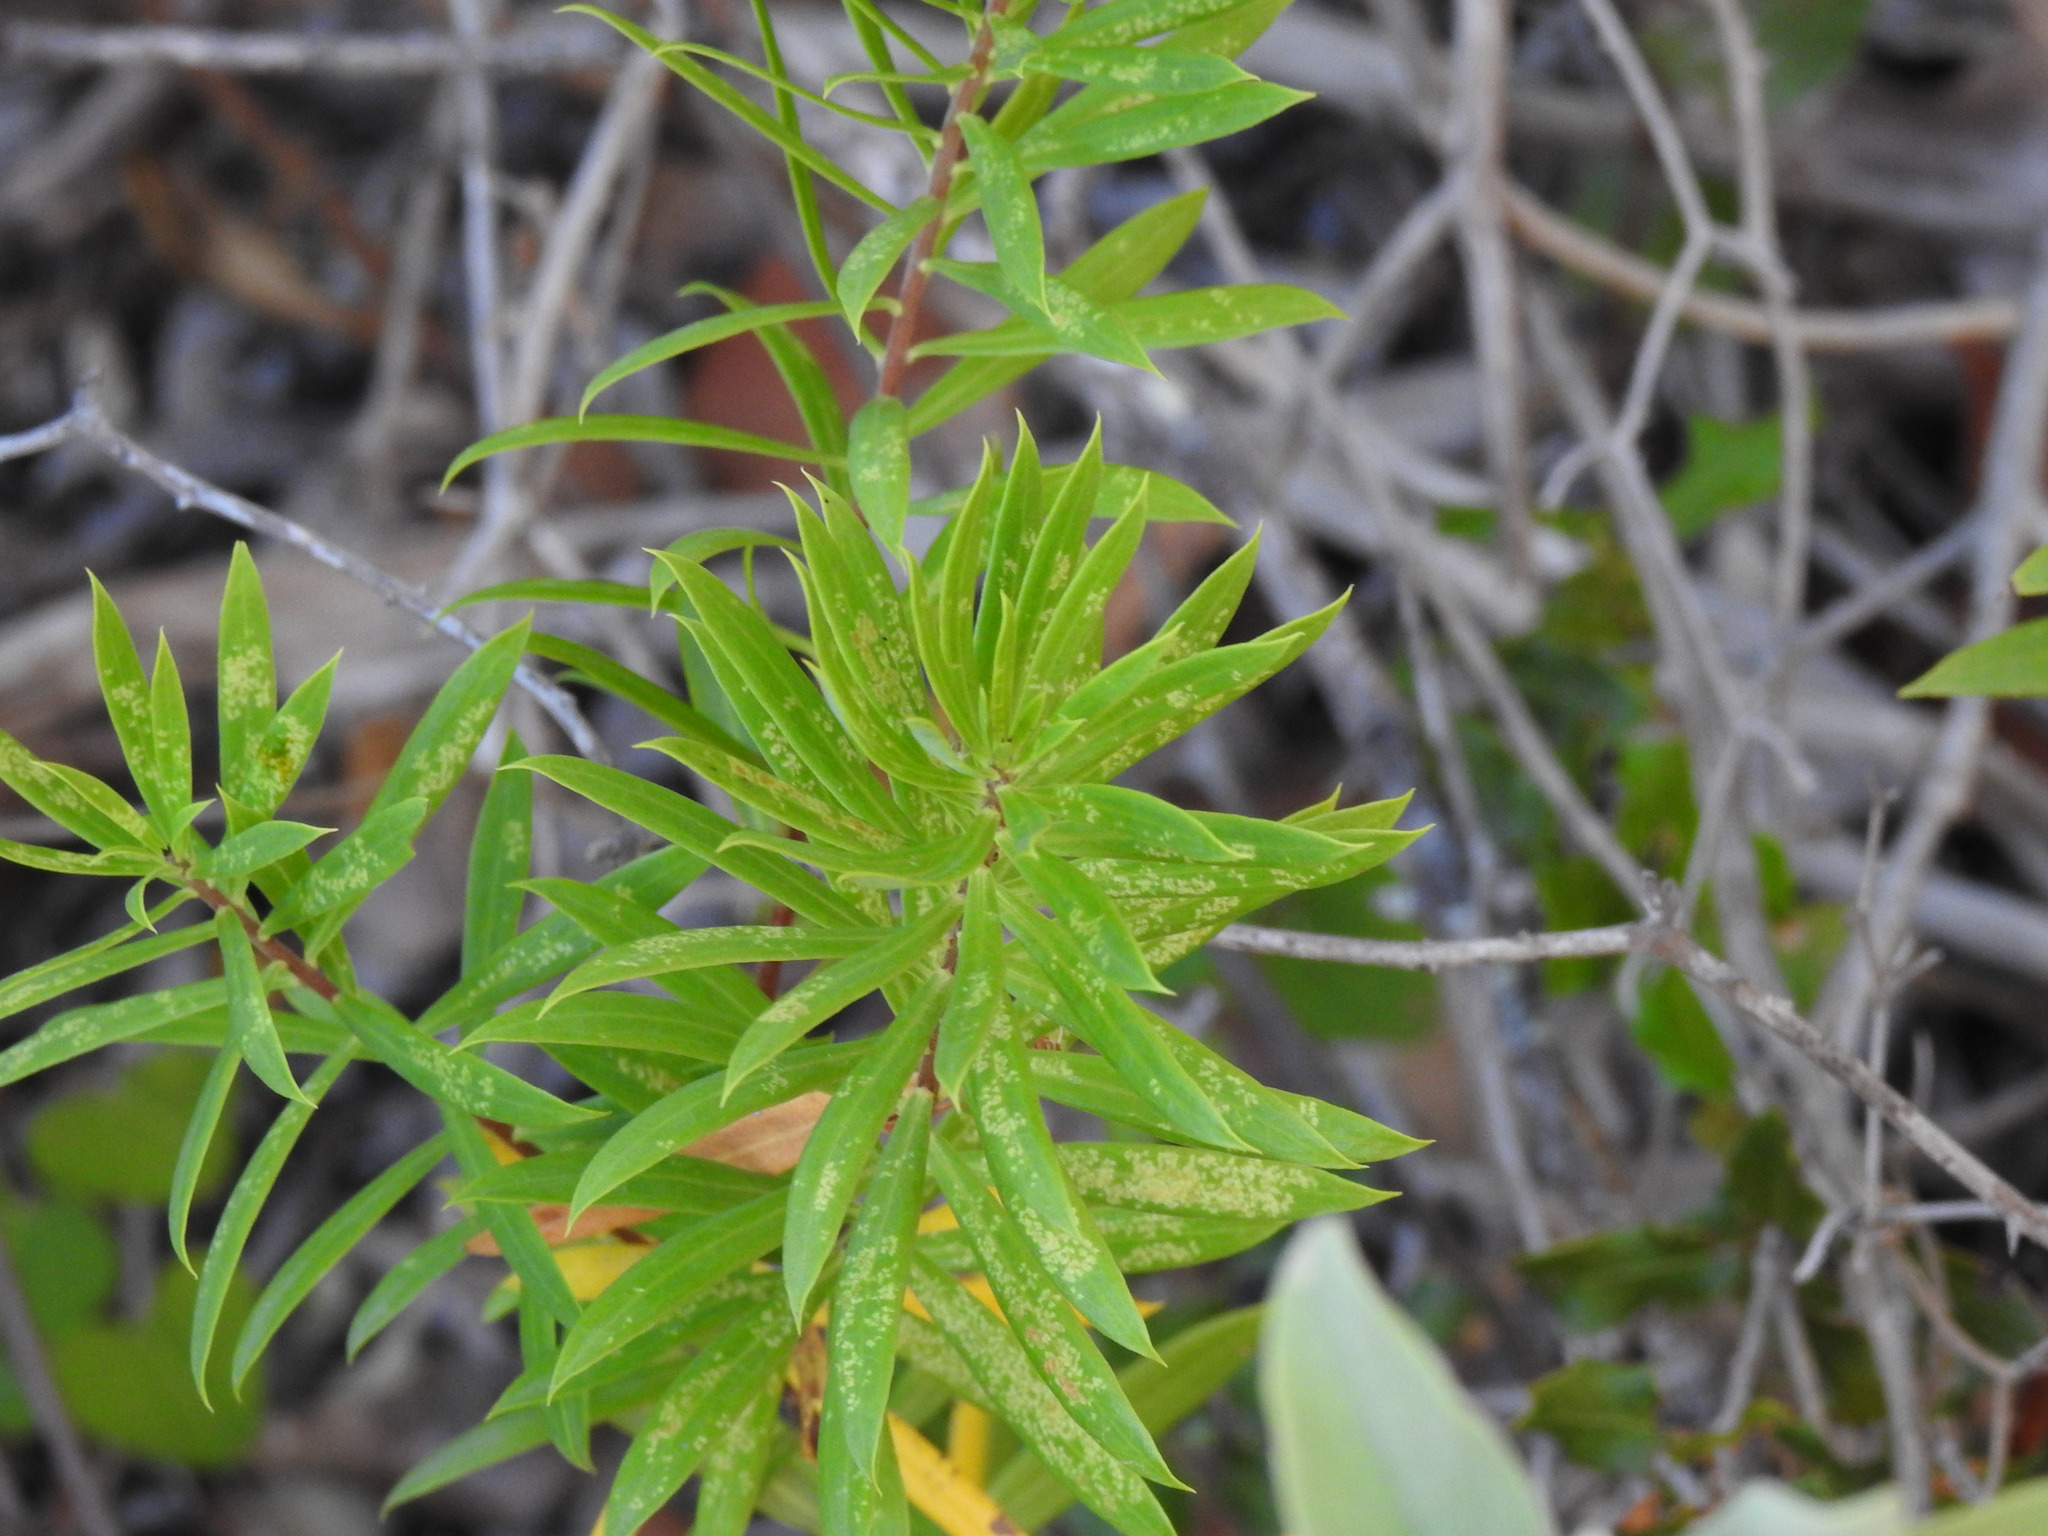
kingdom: Plantae
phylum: Tracheophyta
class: Magnoliopsida
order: Malvales
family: Thymelaeaceae
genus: Daphne
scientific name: Daphne gnidium
